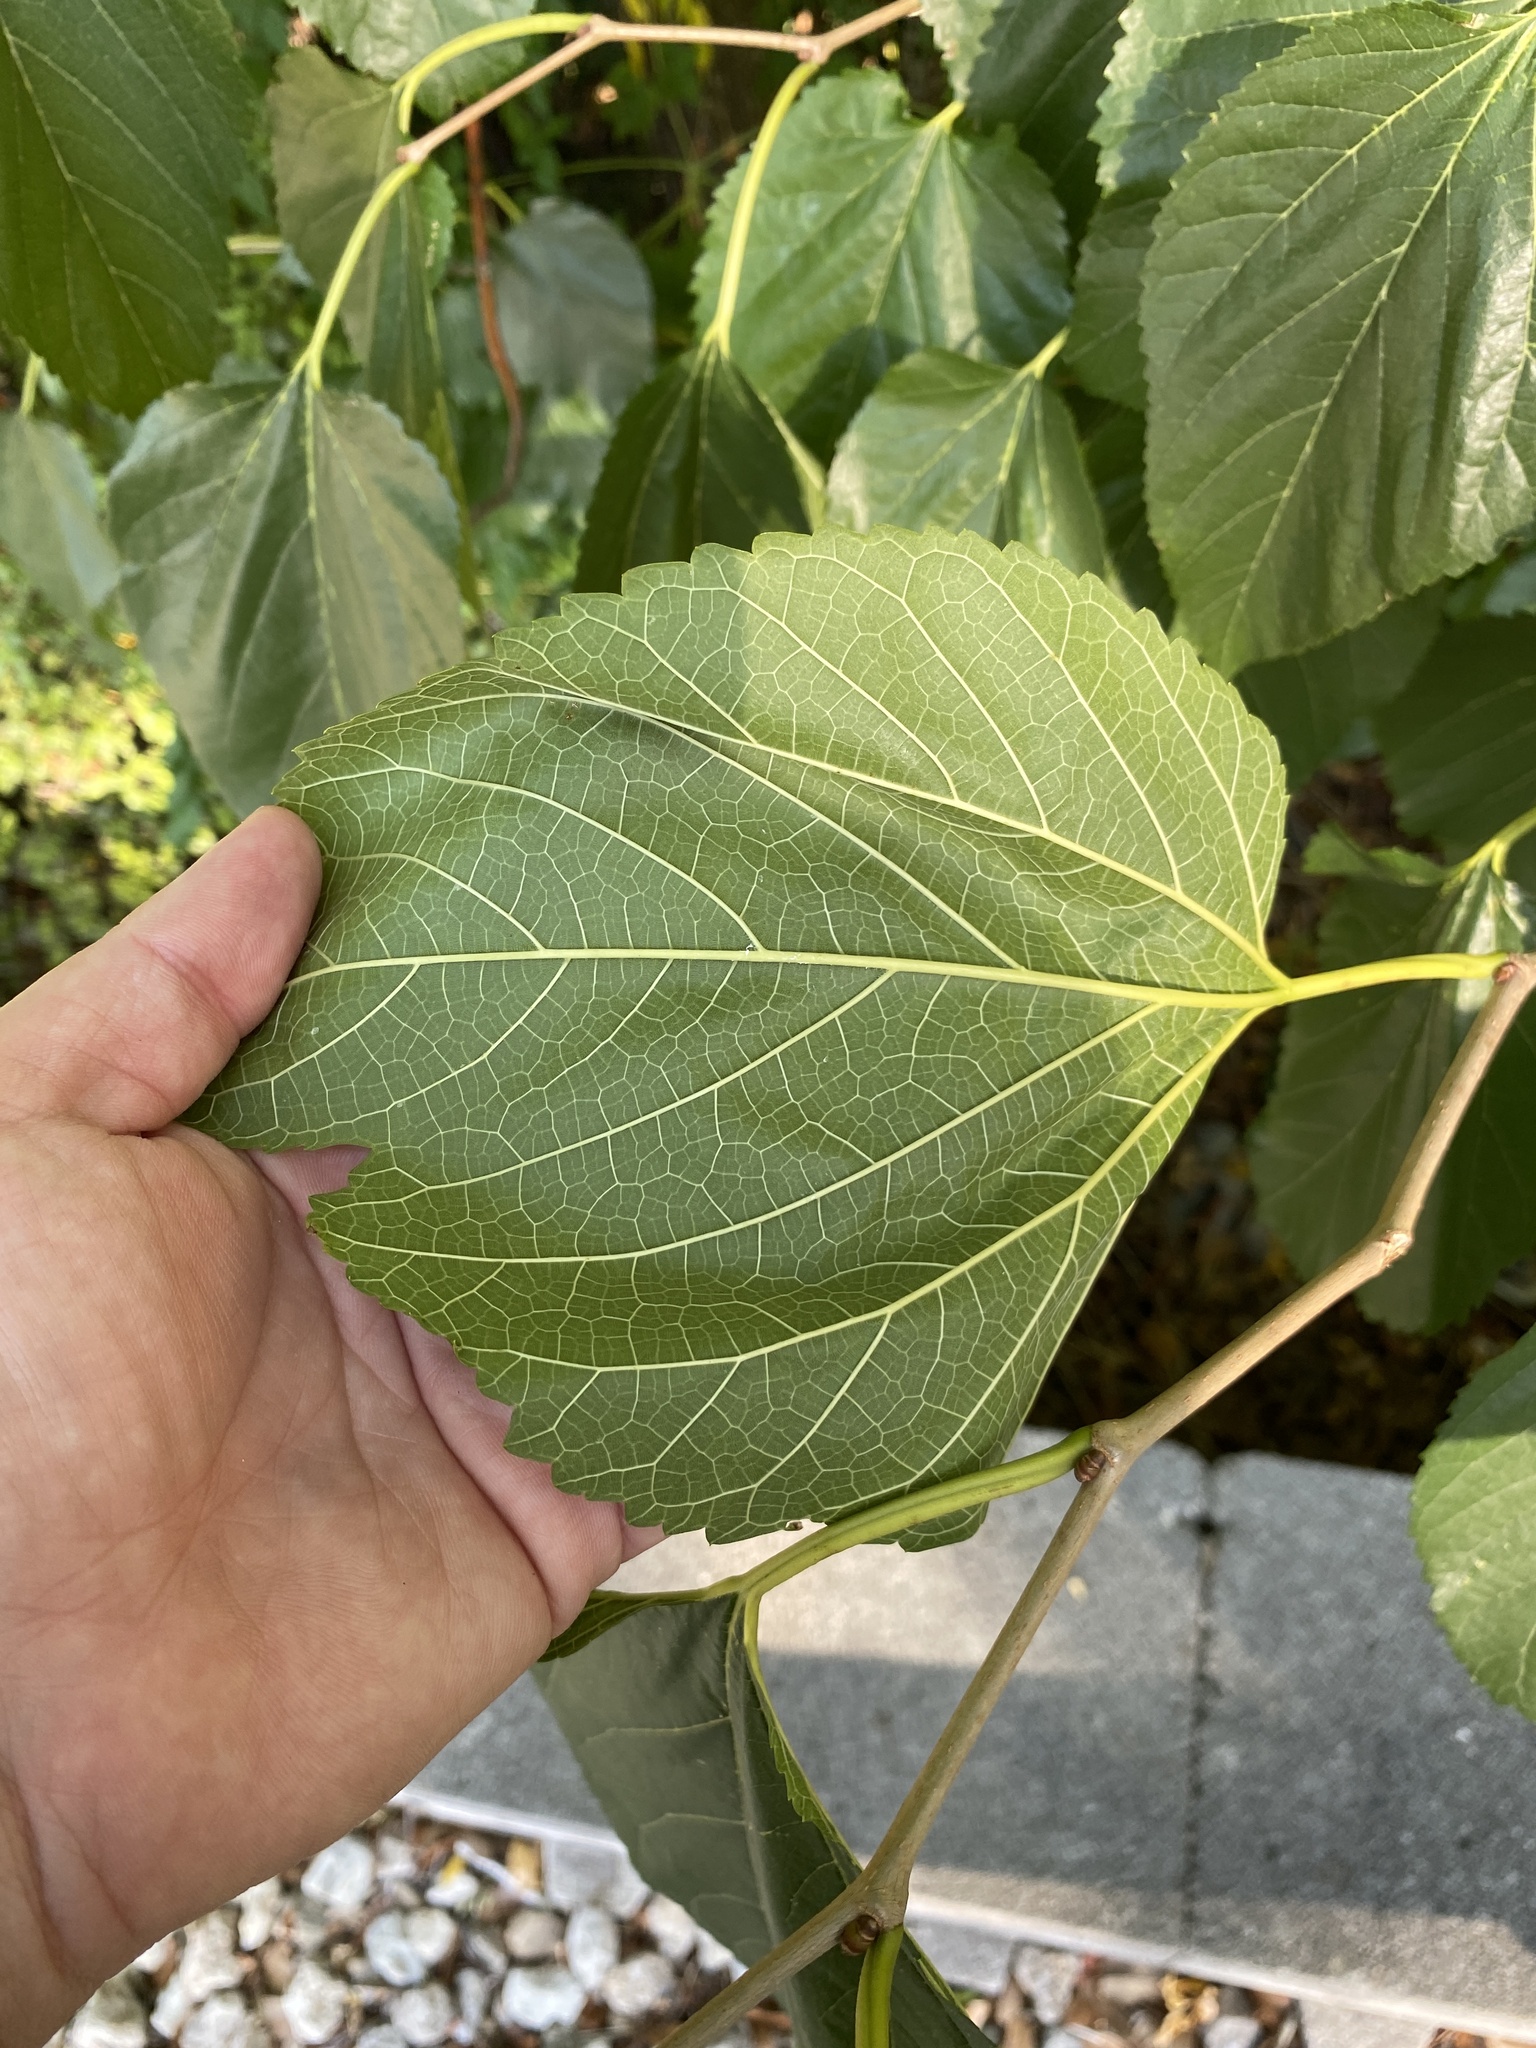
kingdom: Plantae
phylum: Tracheophyta
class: Magnoliopsida
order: Rosales
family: Moraceae
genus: Morus
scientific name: Morus alba
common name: White mulberry
